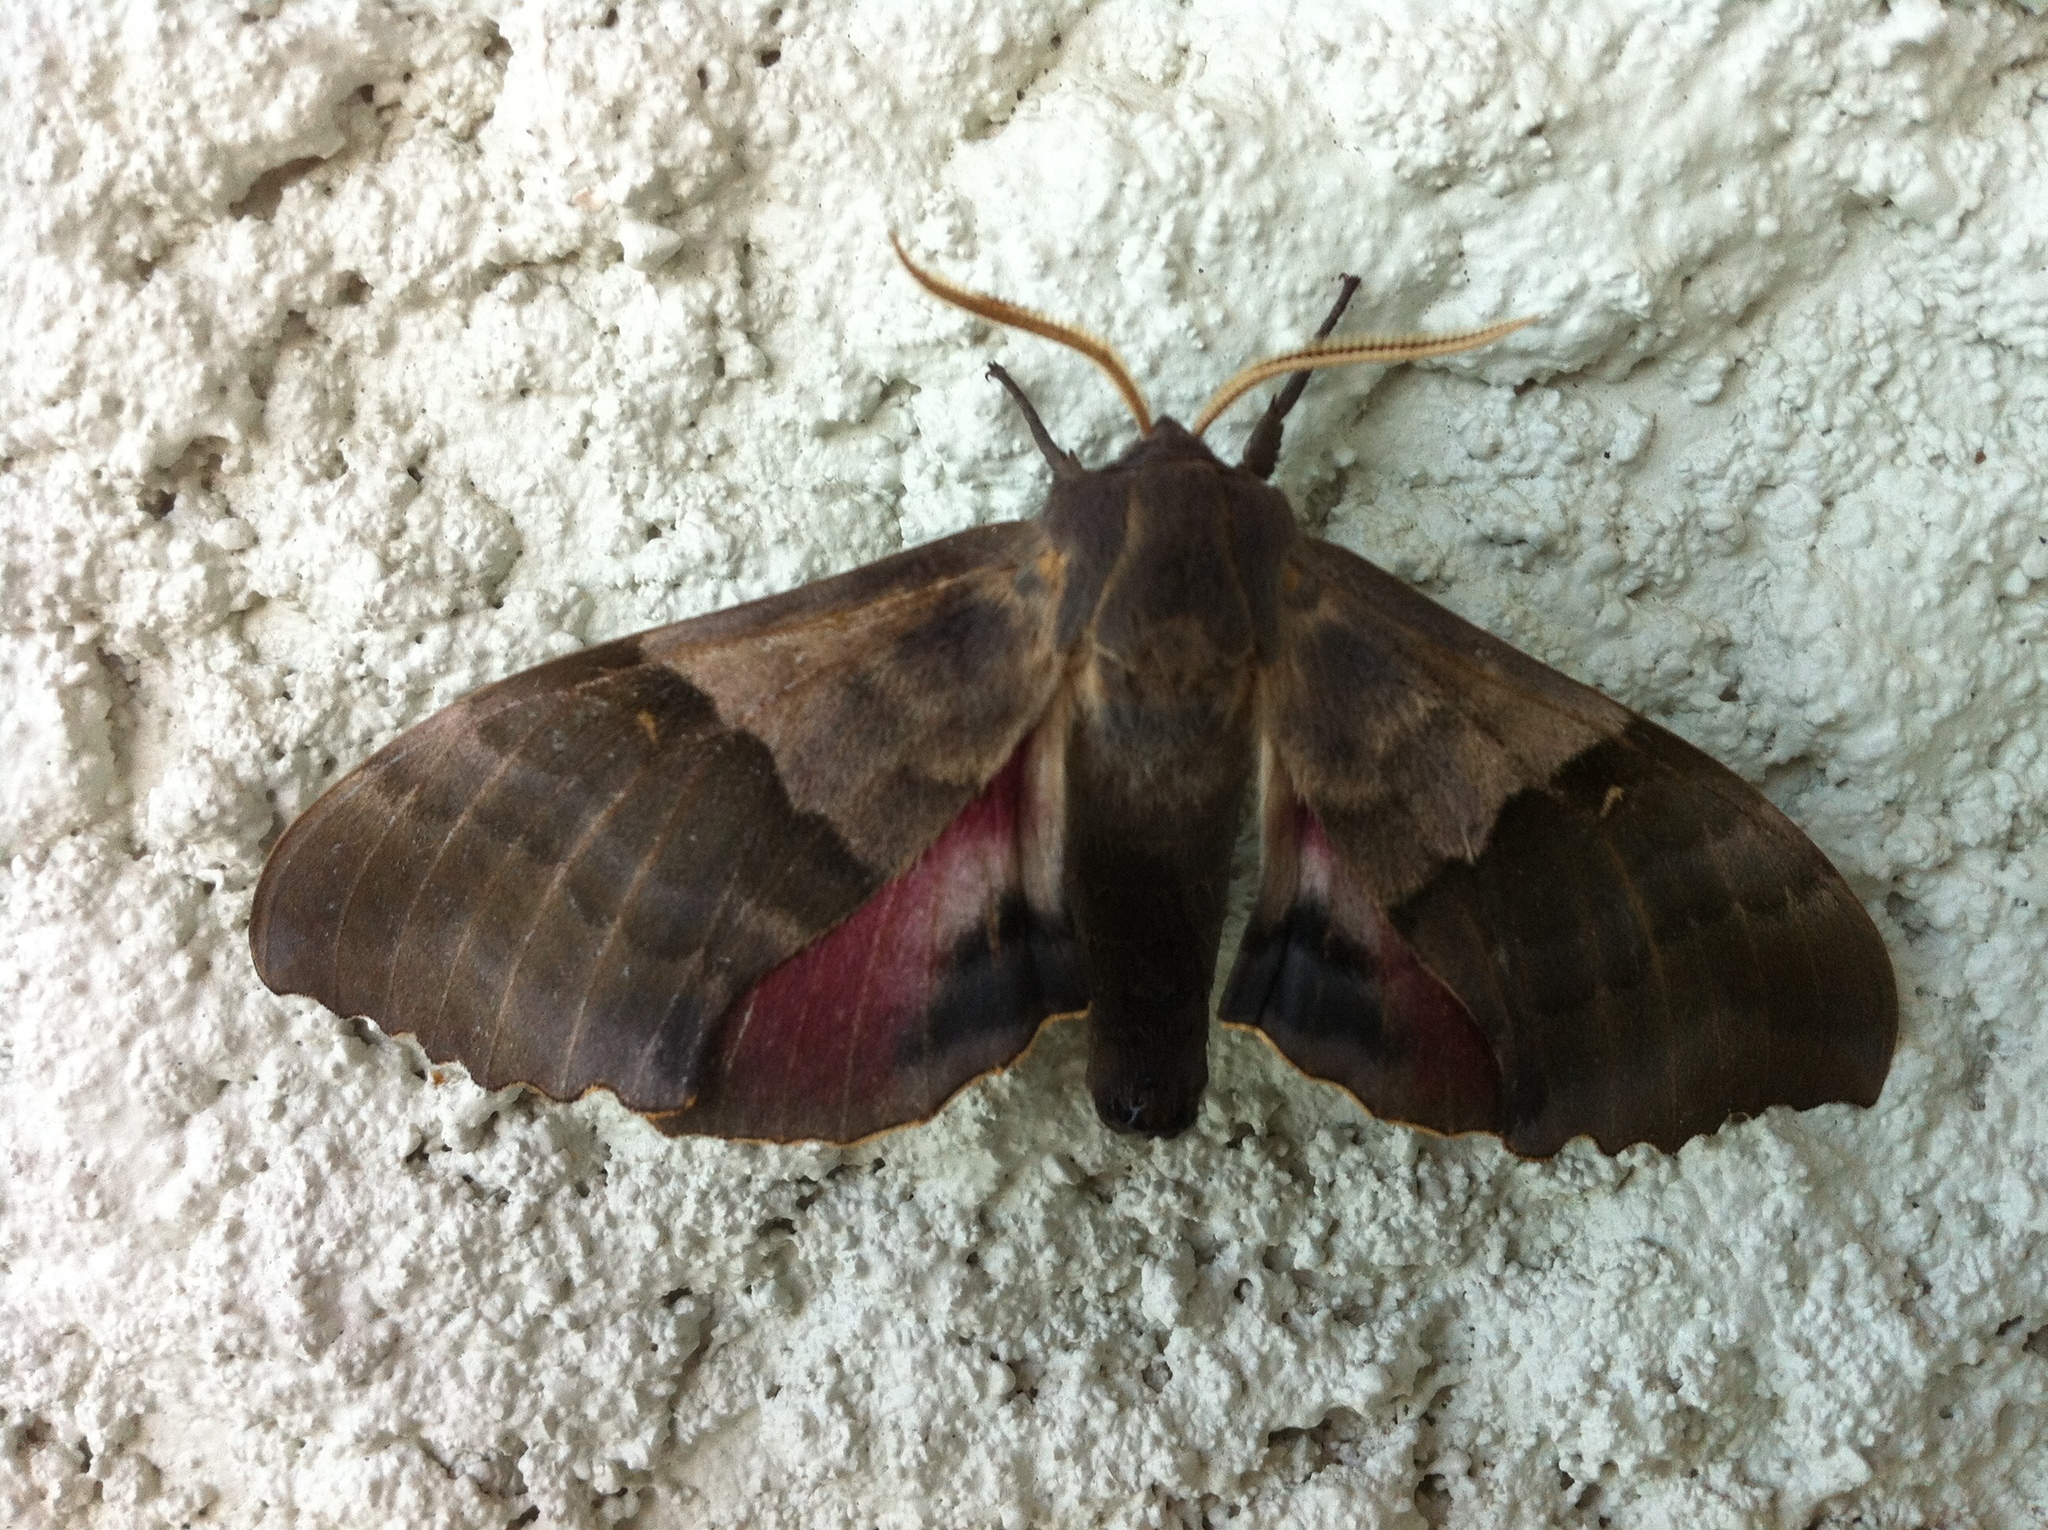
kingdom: Animalia
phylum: Arthropoda
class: Insecta
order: Lepidoptera
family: Sphingidae
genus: Pachysphinx
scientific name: Pachysphinx modesta
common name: Big poplar sphinx
